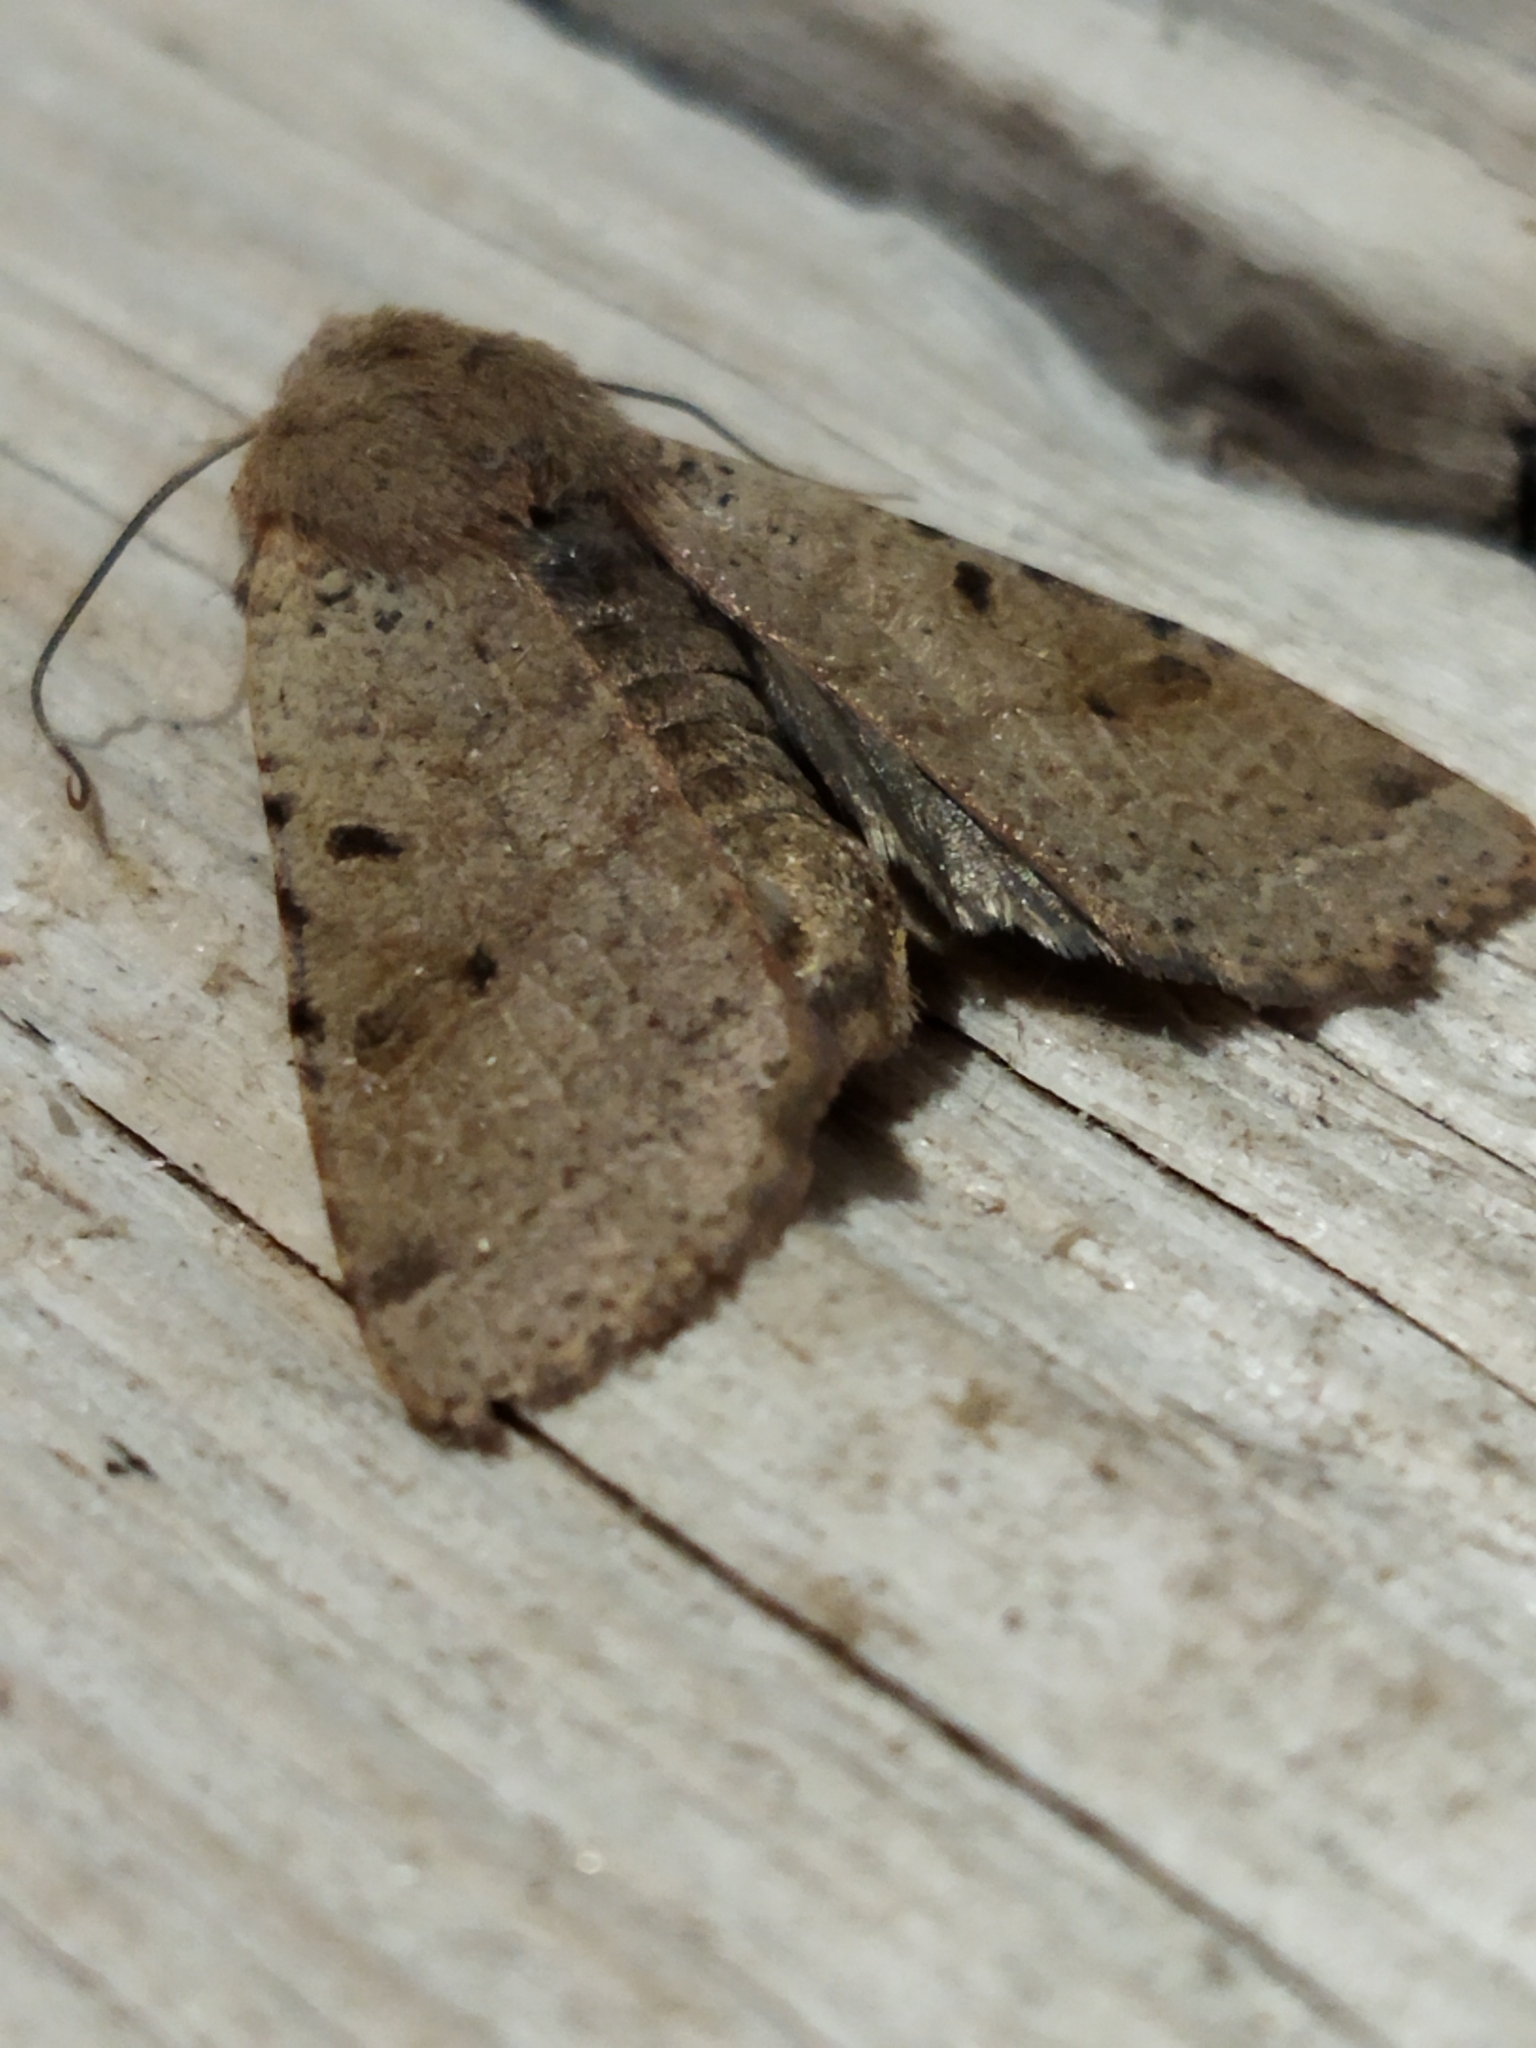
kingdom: Animalia
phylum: Arthropoda
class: Insecta
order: Lepidoptera
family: Noctuidae
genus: Agrochola
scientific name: Agrochola lychnidis
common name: Beaded chestnut
